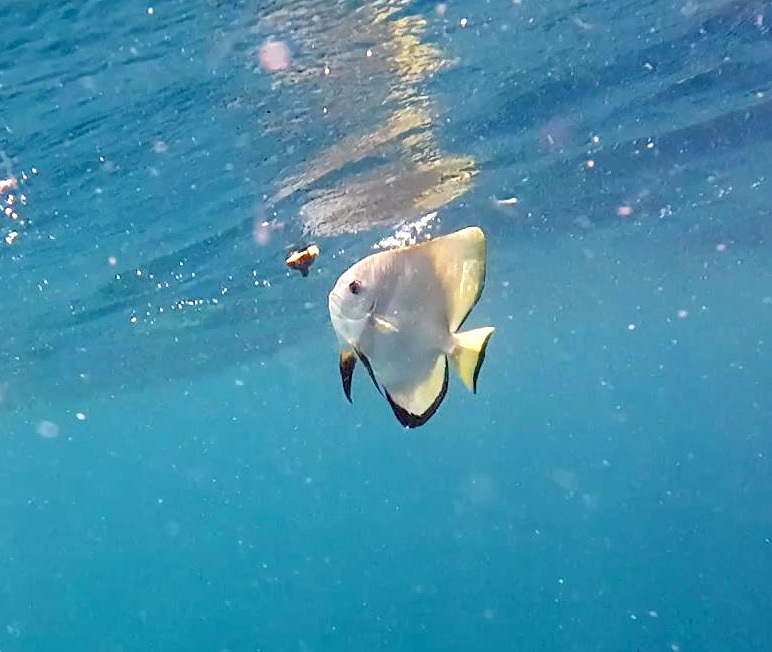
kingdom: Animalia
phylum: Chordata
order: Perciformes
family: Ephippidae
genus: Platax
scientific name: Platax teira
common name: Longfin baitfish
